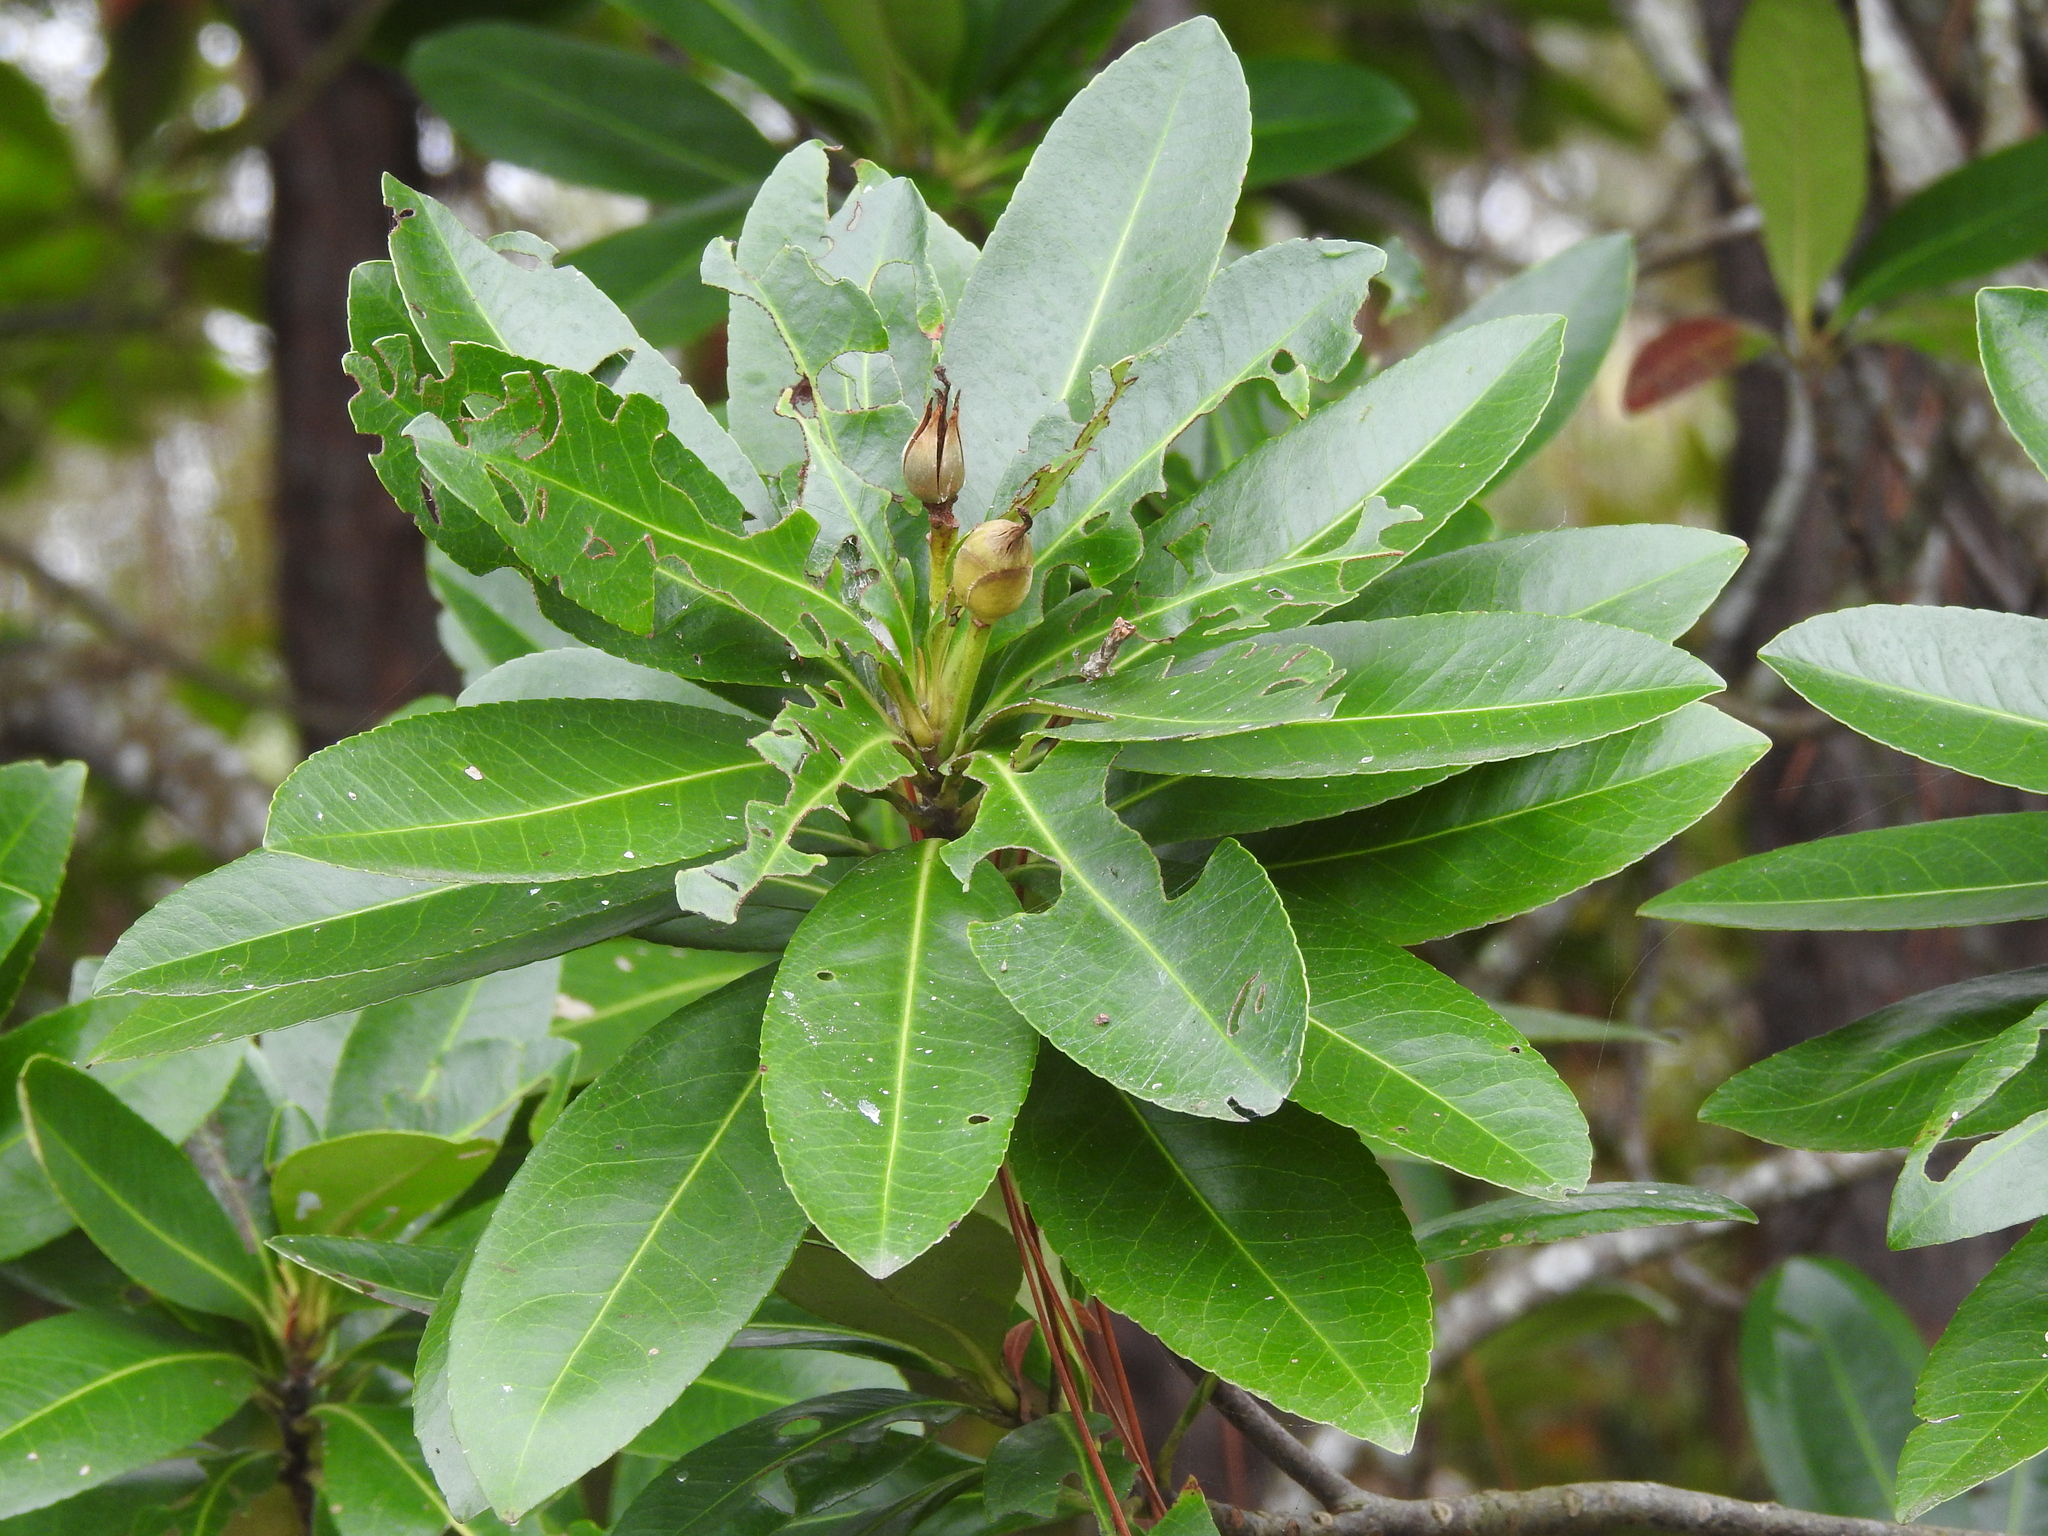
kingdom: Plantae
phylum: Tracheophyta
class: Magnoliopsida
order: Ericales
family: Theaceae
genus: Gordonia
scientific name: Gordonia lasianthus
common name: Loblolly bay
